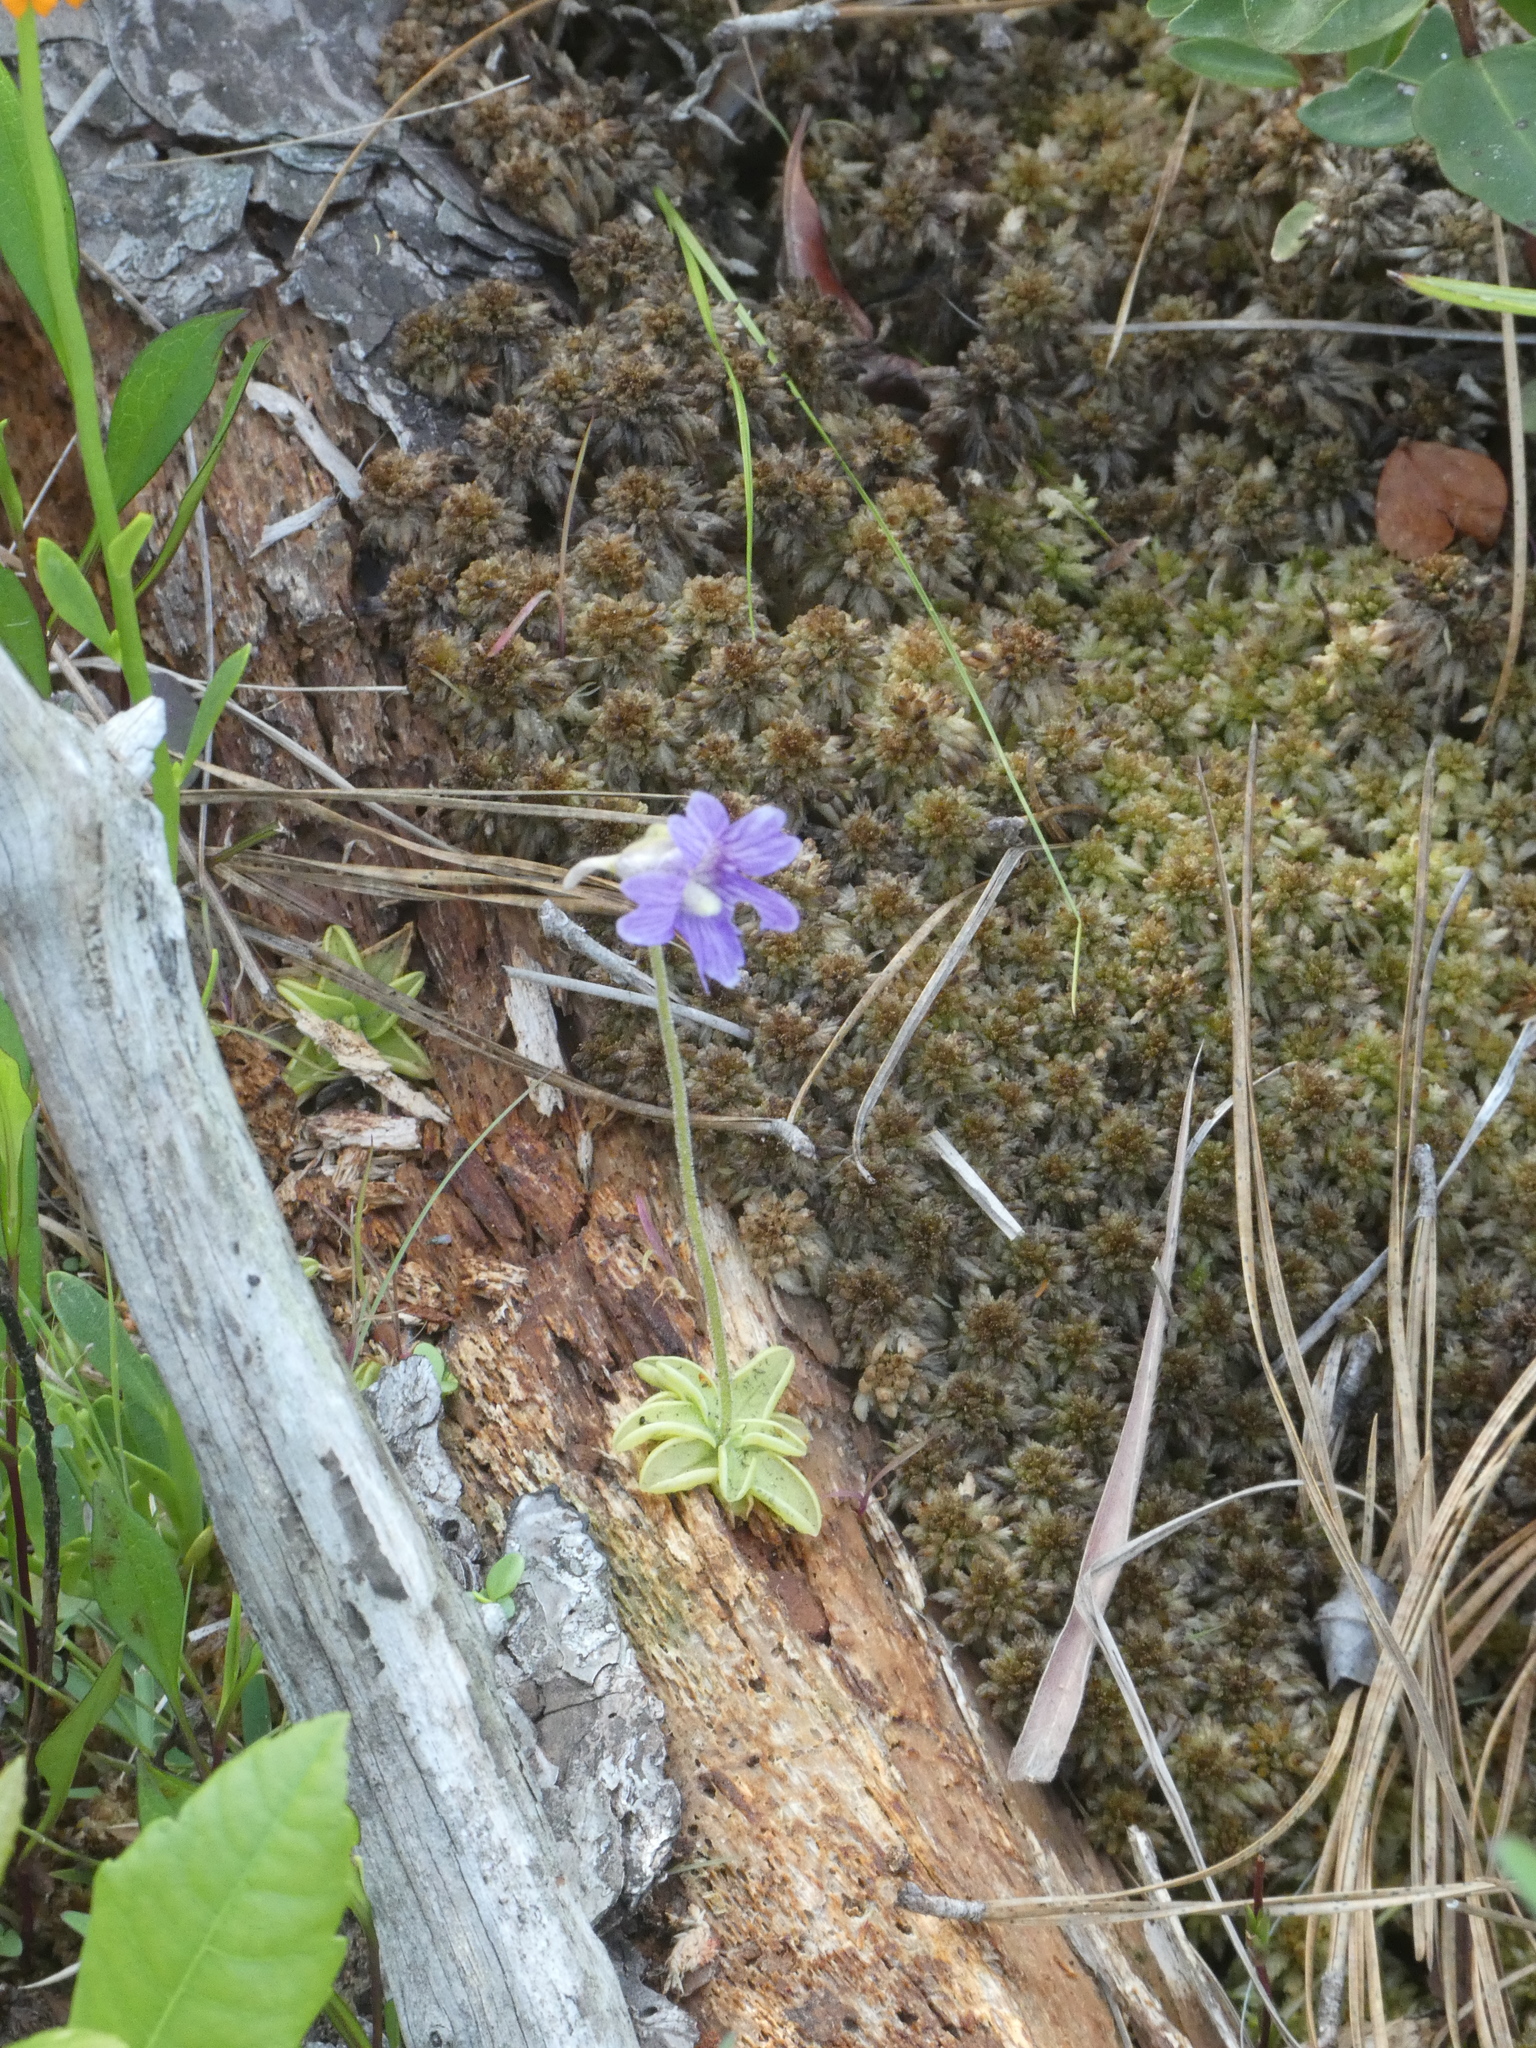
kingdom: Plantae
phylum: Tracheophyta
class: Magnoliopsida
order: Lamiales
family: Lentibulariaceae
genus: Pinguicula
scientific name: Pinguicula caerulea
